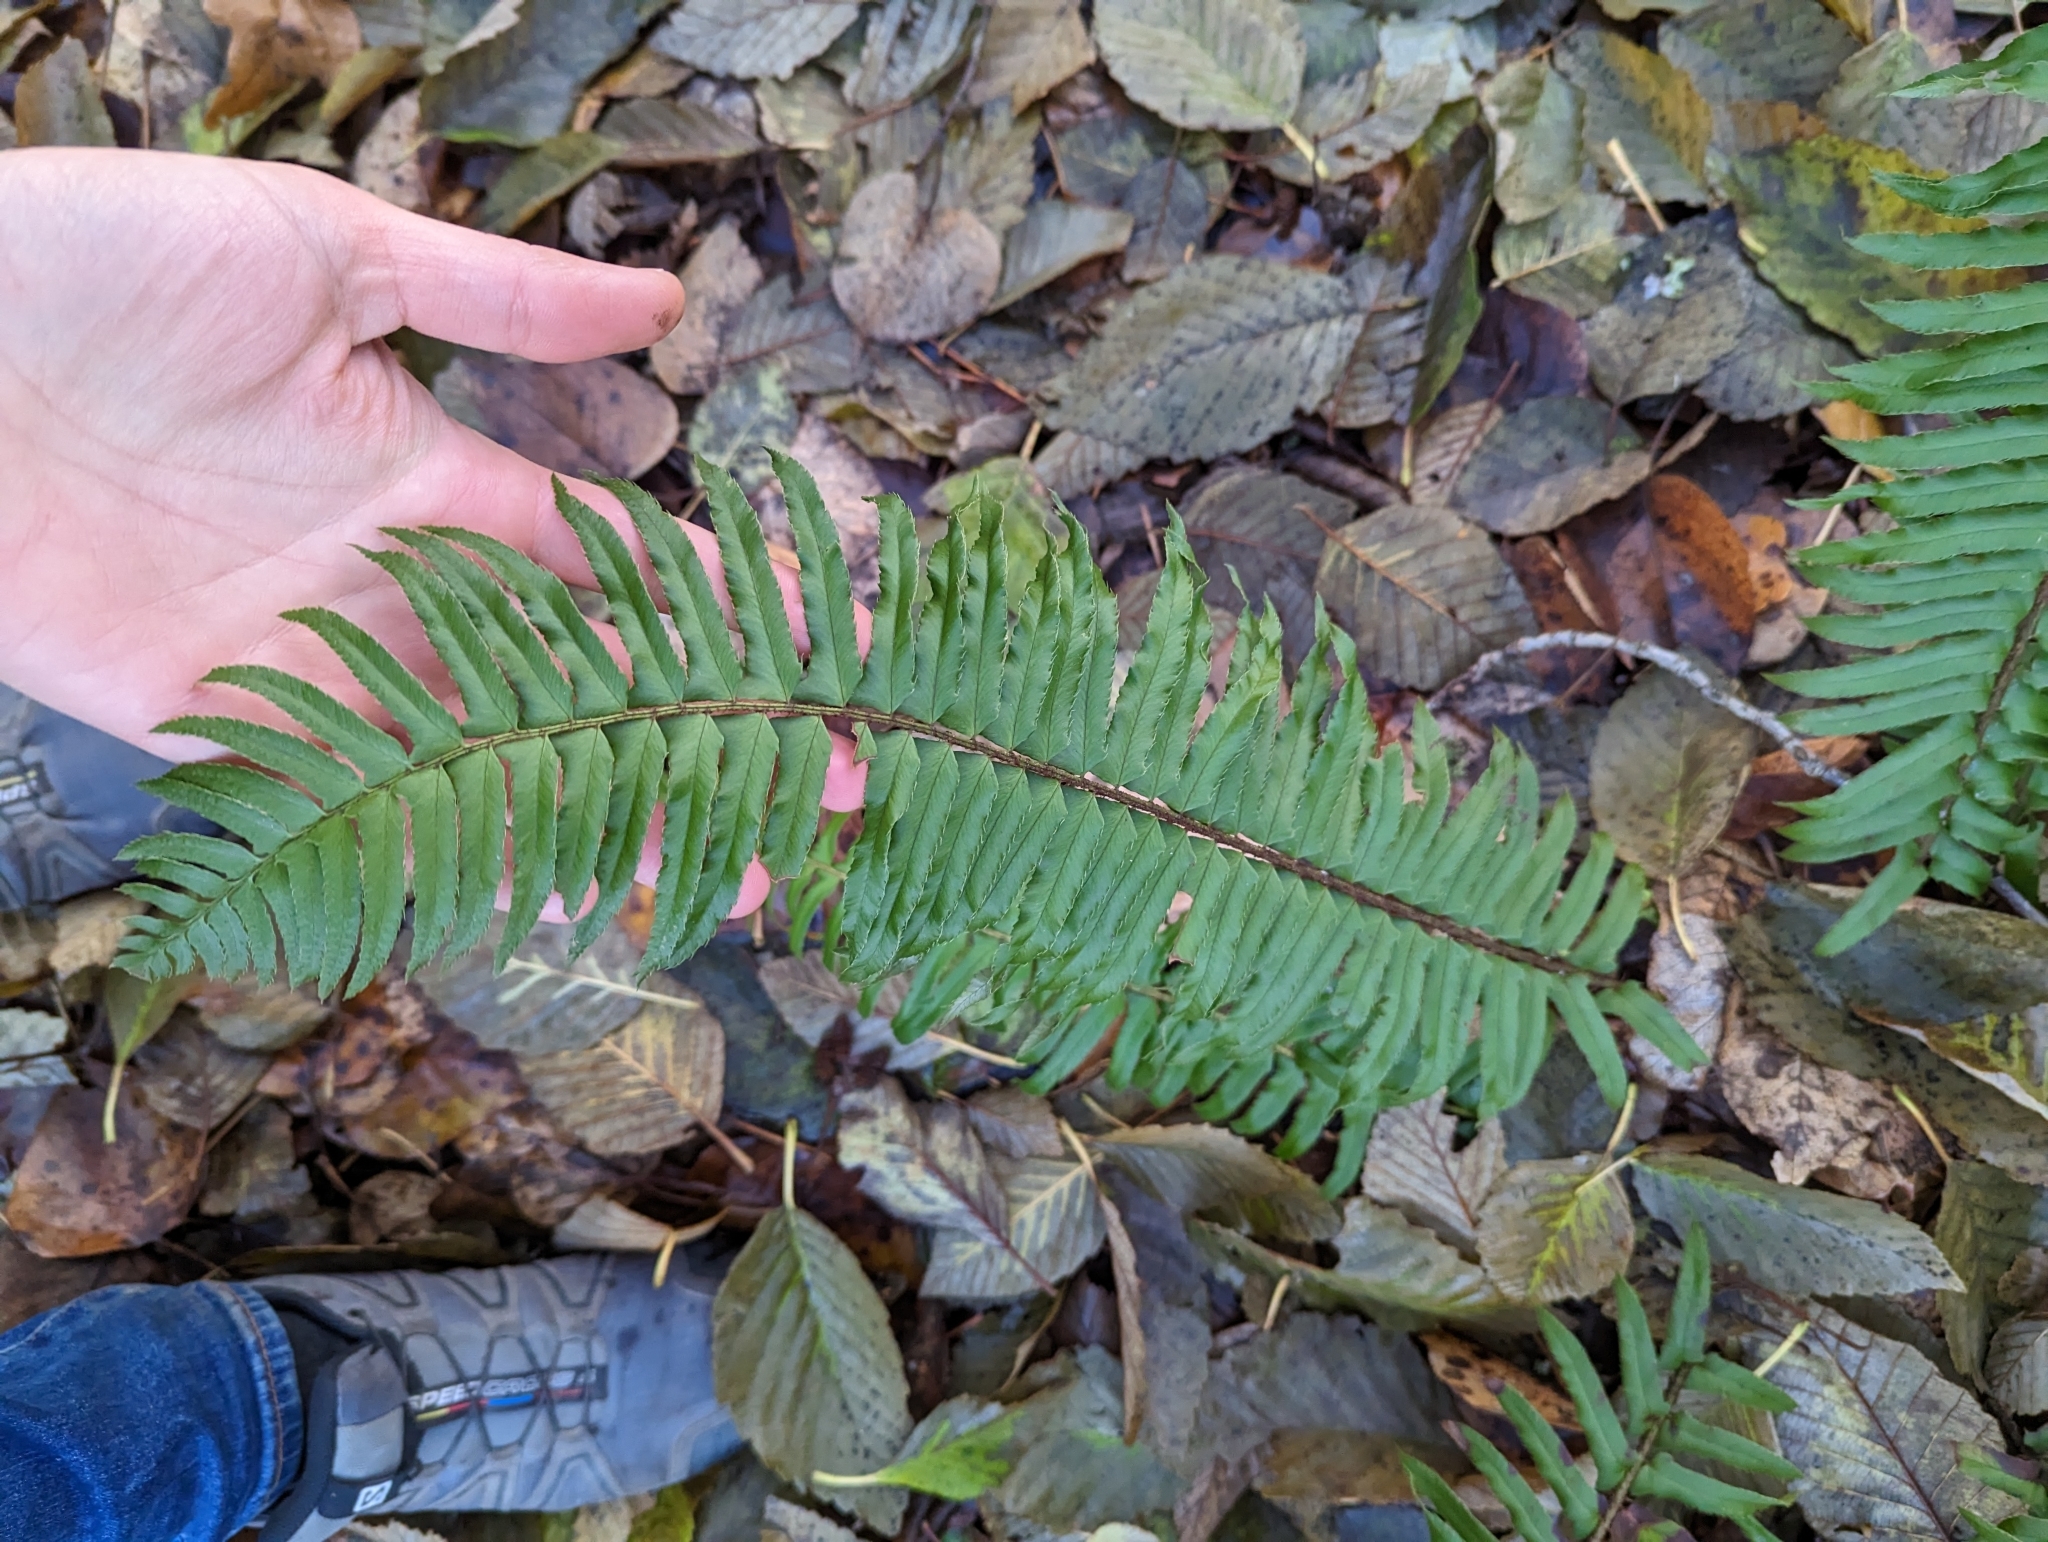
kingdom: Plantae
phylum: Tracheophyta
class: Polypodiopsida
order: Polypodiales
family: Dryopteridaceae
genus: Polystichum
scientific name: Polystichum munitum
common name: Western sword-fern
